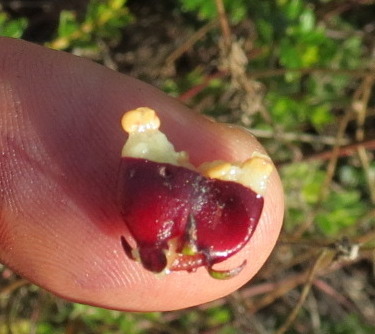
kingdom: Plantae
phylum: Tracheophyta
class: Magnoliopsida
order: Myrtales
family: Myrtaceae
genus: Ugni
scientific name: Ugni myricoides
